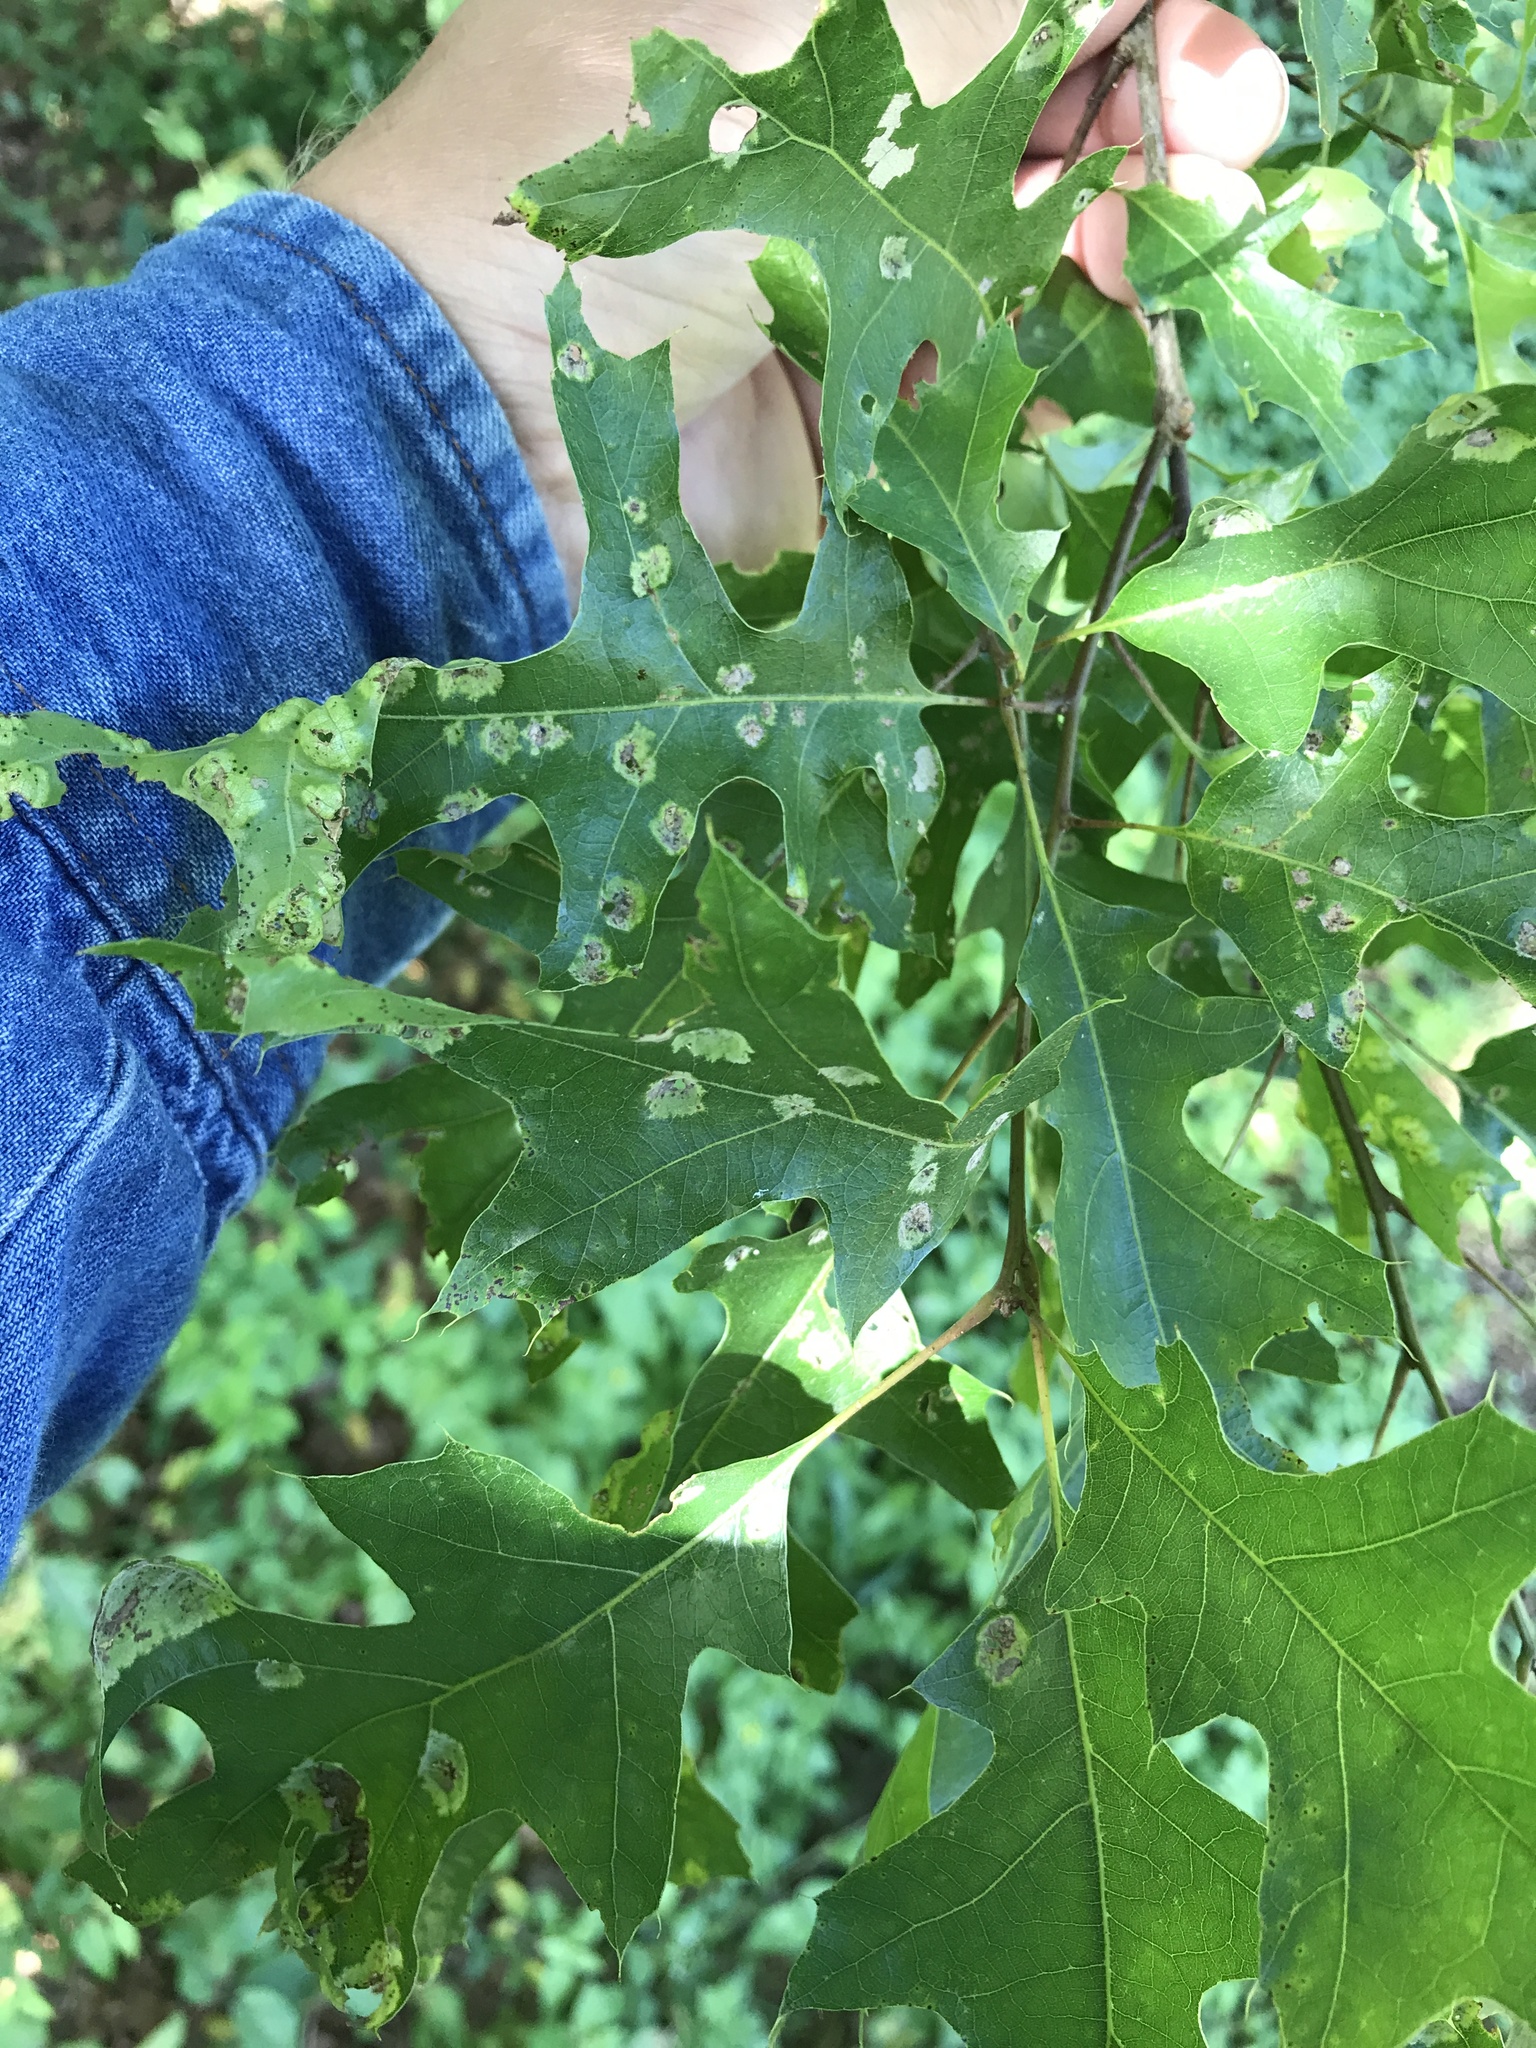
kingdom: Fungi
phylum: Ascomycota
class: Taphrinomycetes
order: Taphrinales
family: Taphrinaceae
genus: Taphrina
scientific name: Taphrina caerulescens
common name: Oak leaf blister
